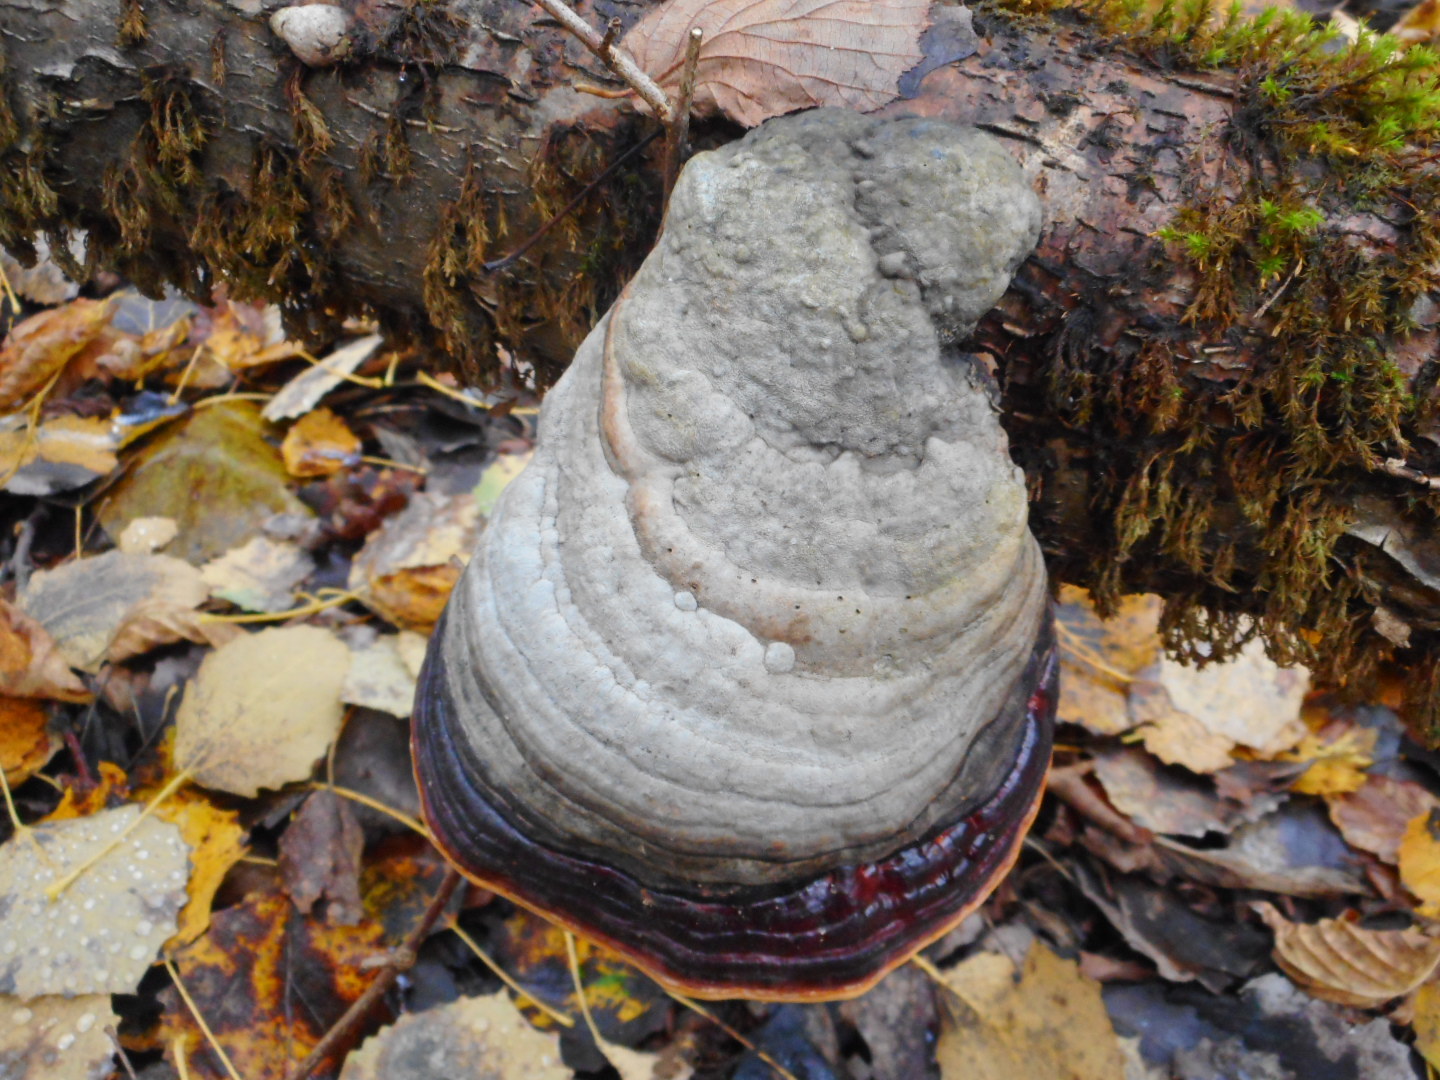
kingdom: Fungi
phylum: Basidiomycota
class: Agaricomycetes
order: Polyporales
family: Fomitopsidaceae
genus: Fomitopsis
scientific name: Fomitopsis pinicola
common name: Red-belted bracket
